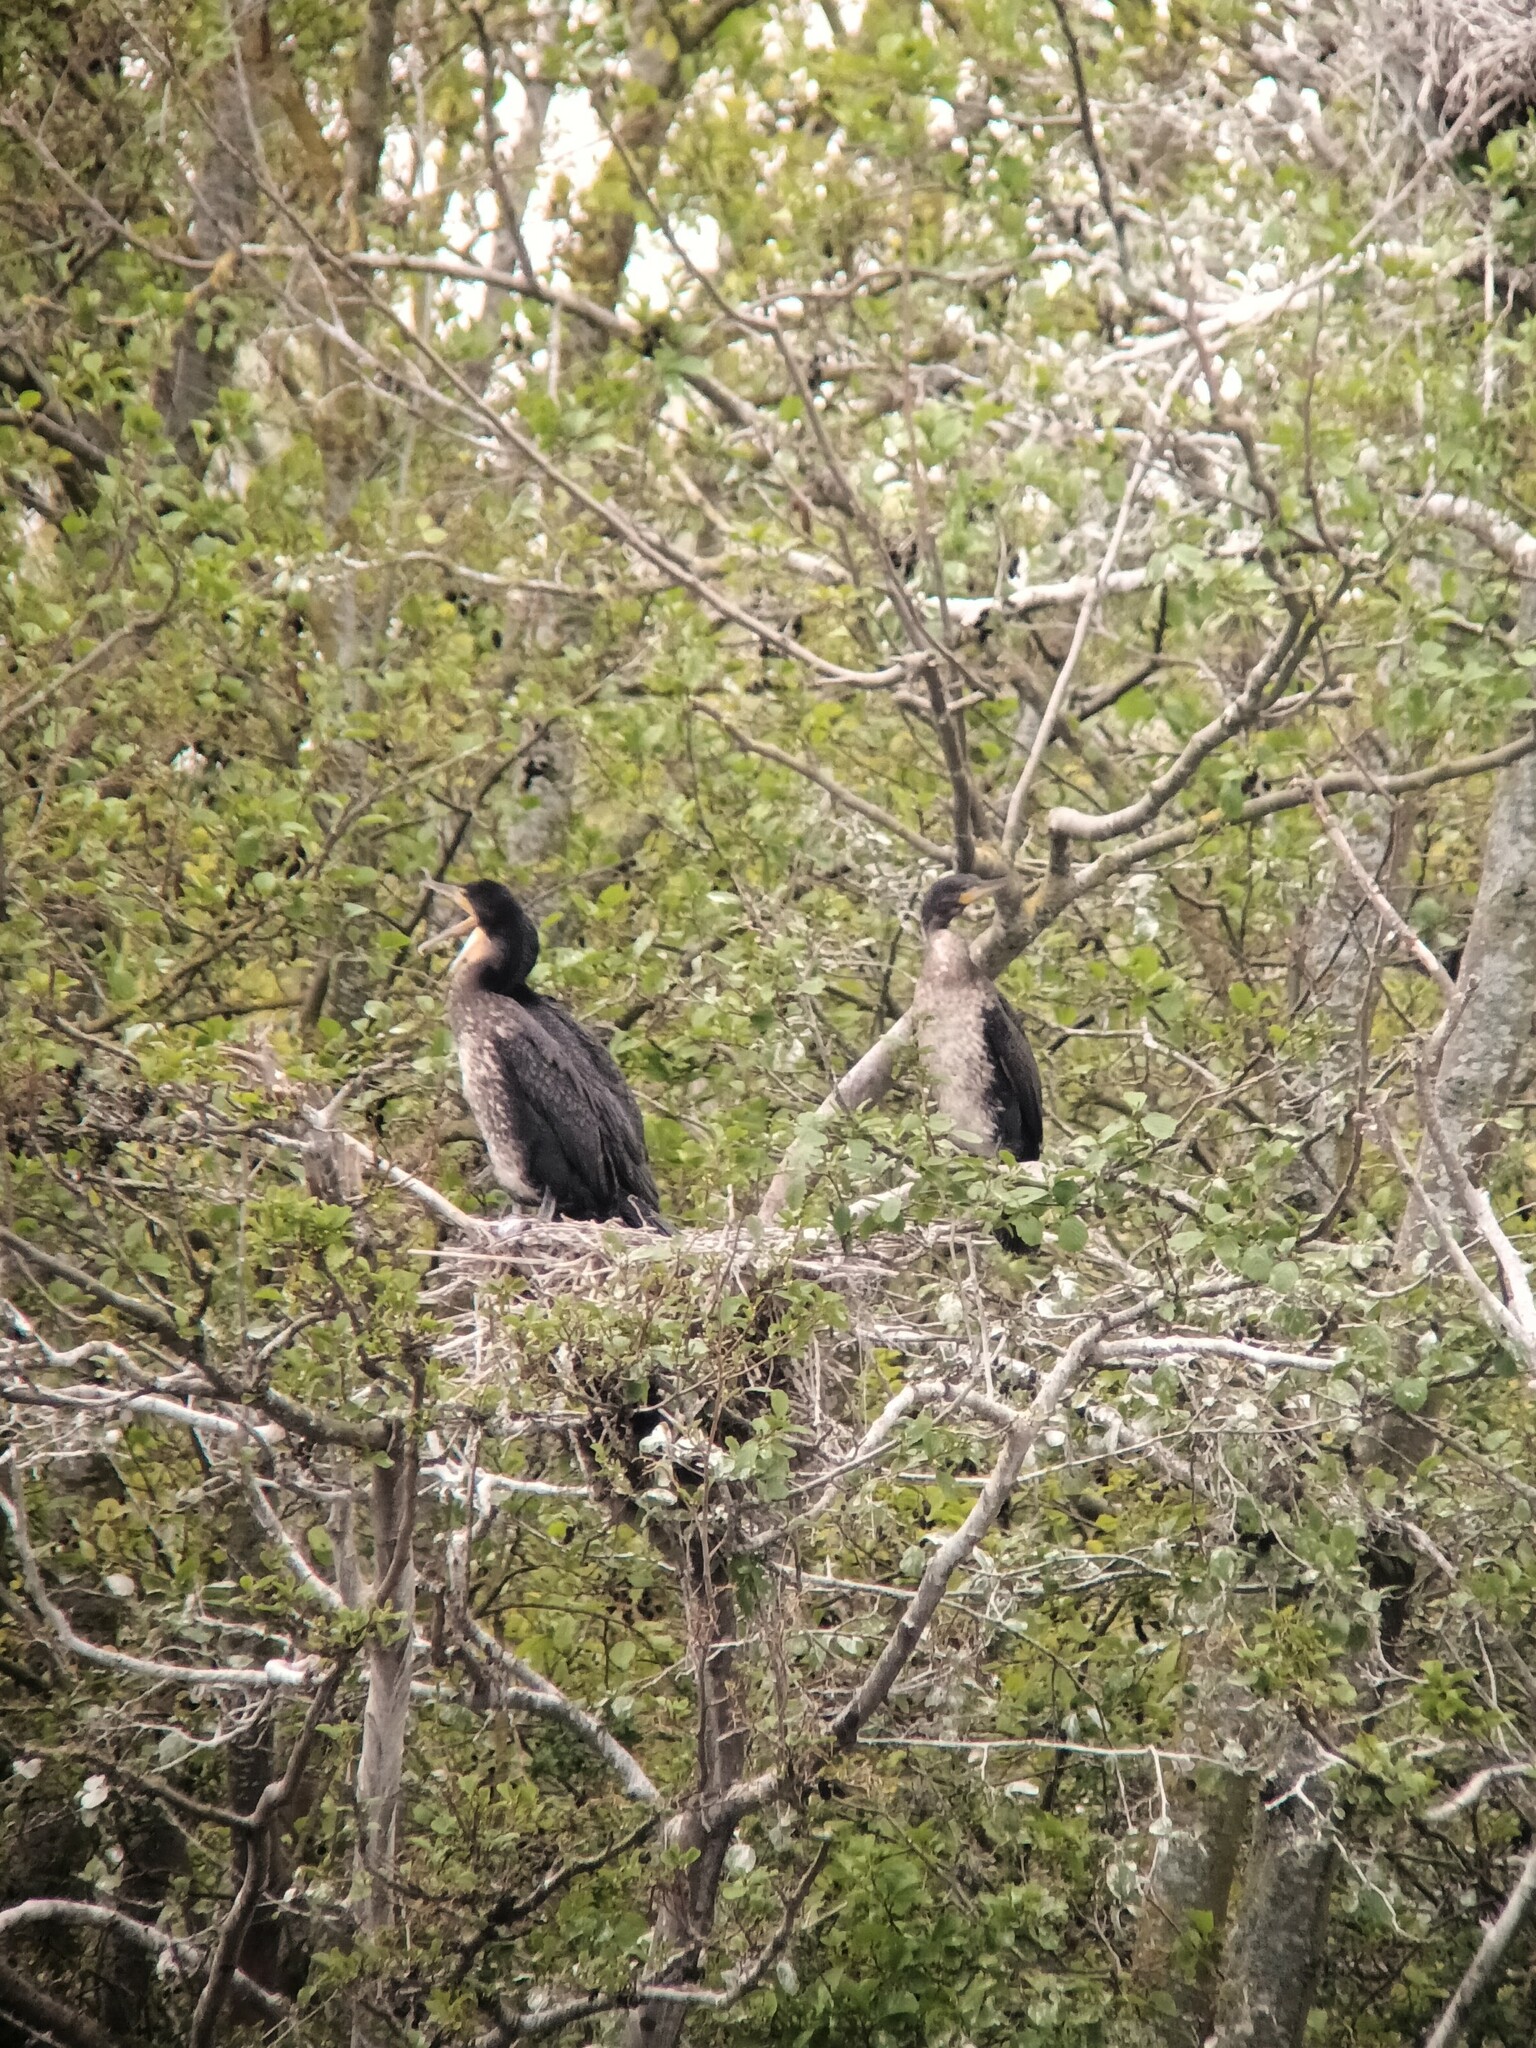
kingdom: Animalia
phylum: Chordata
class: Aves
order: Suliformes
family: Phalacrocoracidae
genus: Phalacrocorax
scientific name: Phalacrocorax carbo
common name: Great cormorant
